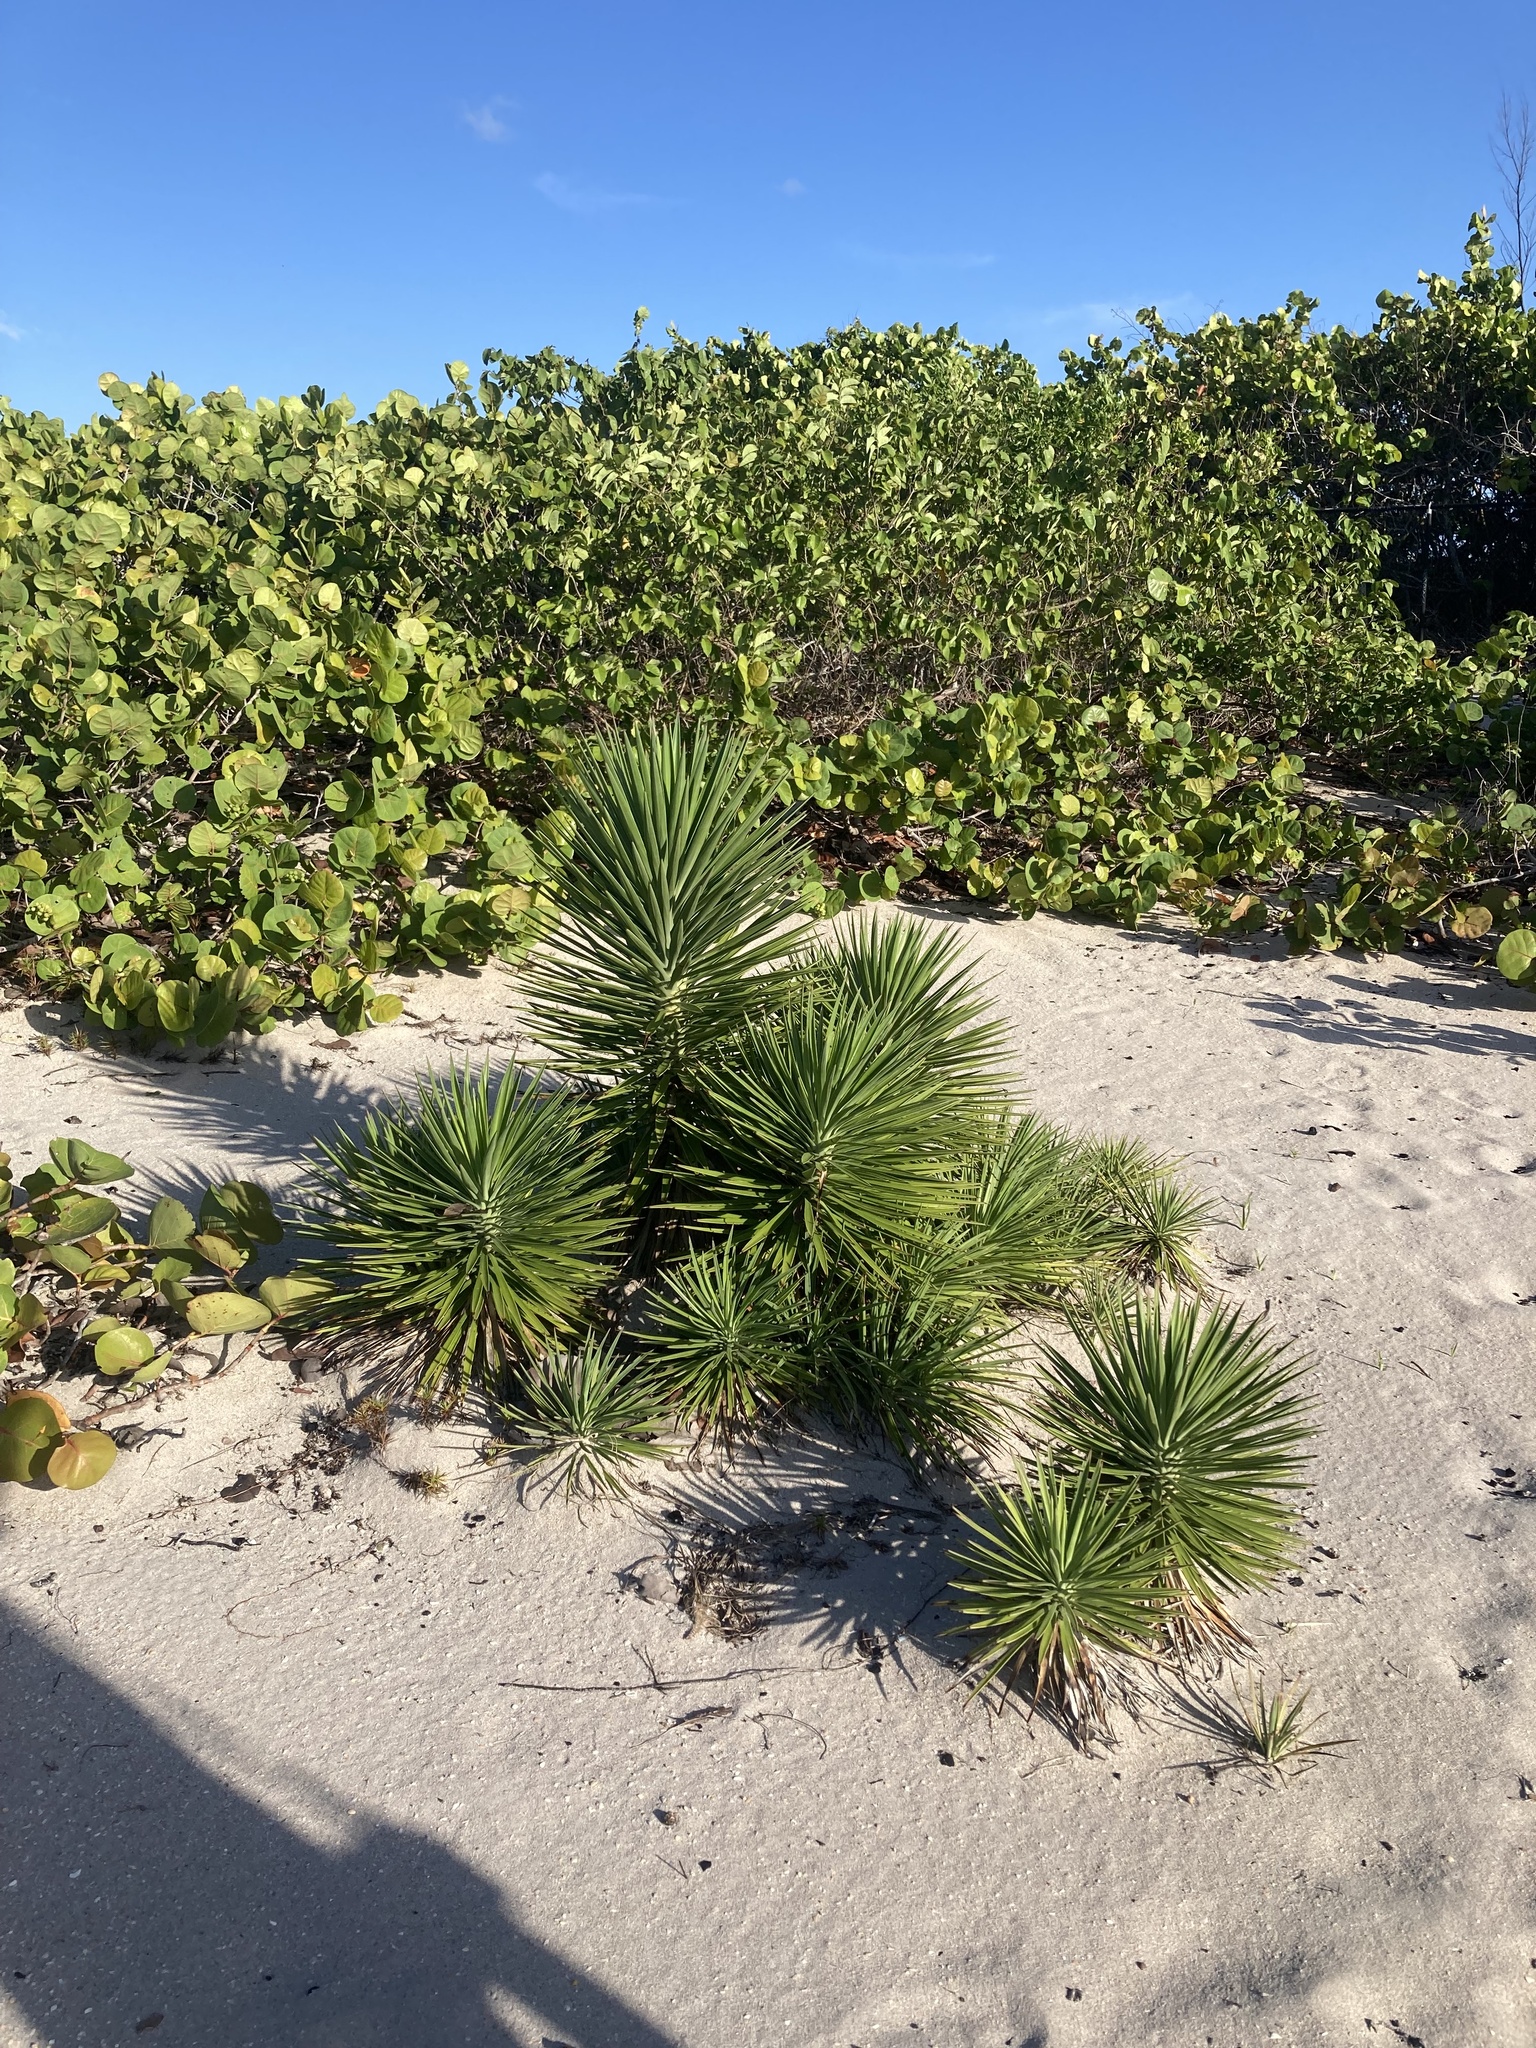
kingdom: Plantae
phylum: Tracheophyta
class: Liliopsida
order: Asparagales
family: Asparagaceae
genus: Yucca
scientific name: Yucca aloifolia
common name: Aloe yucca
